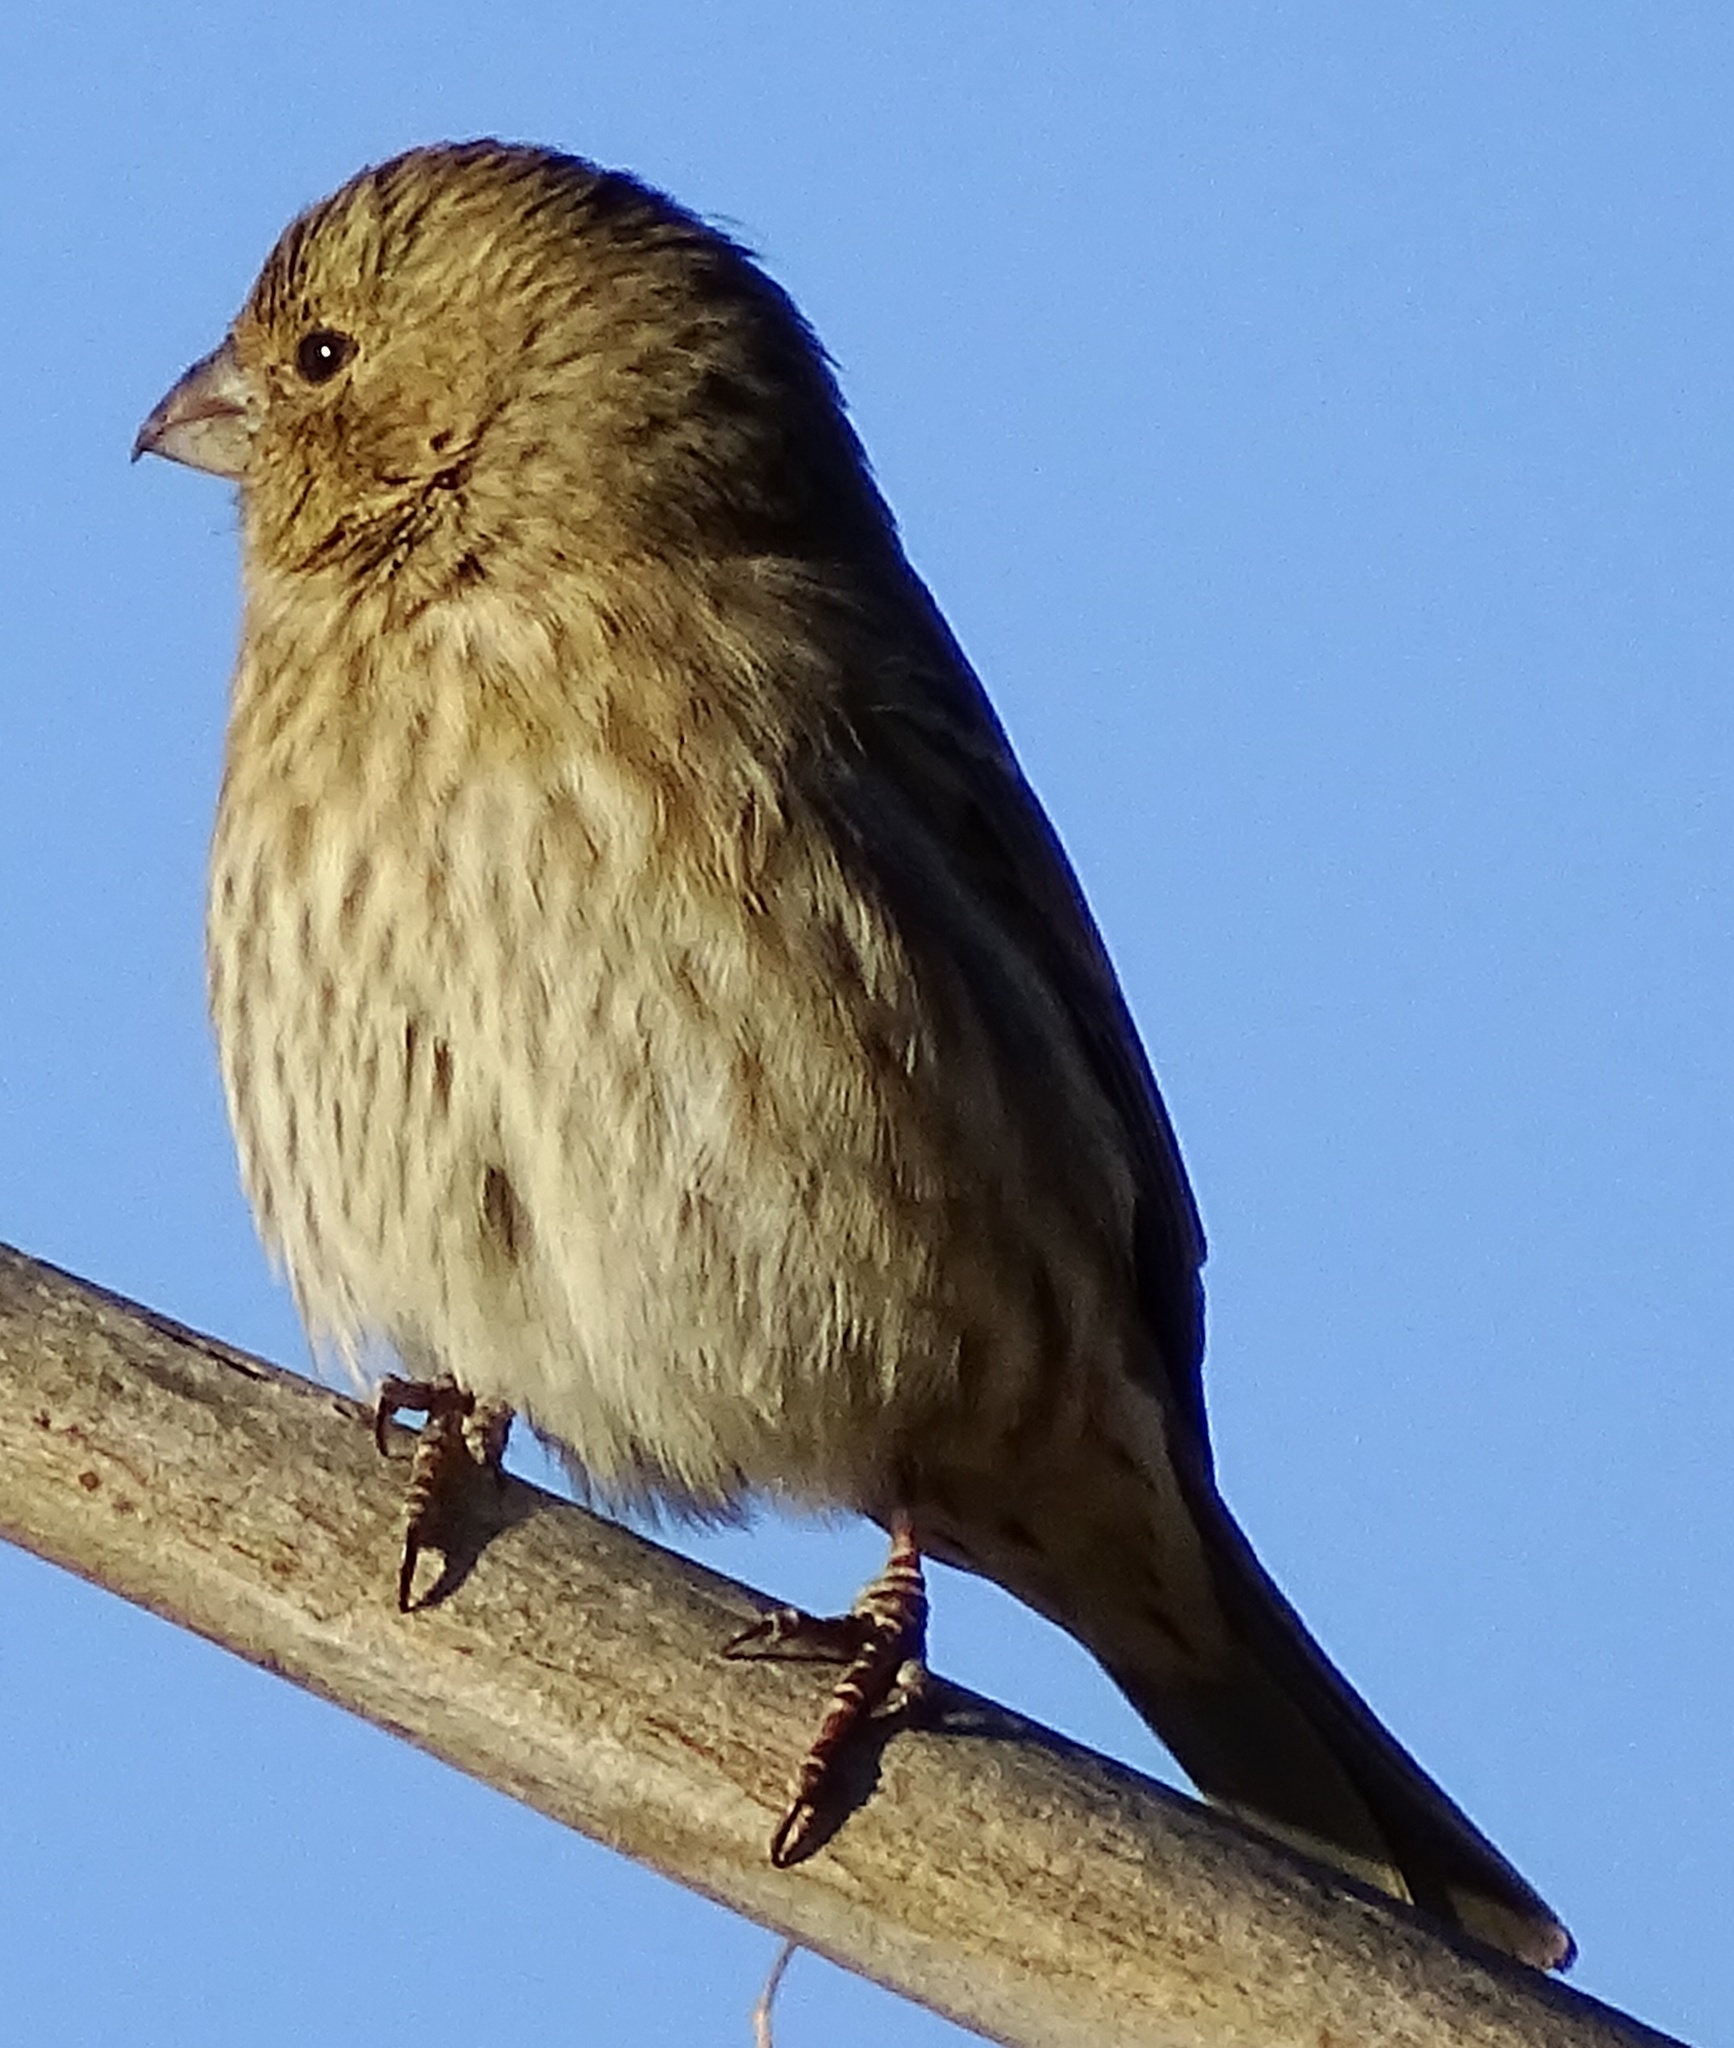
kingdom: Animalia
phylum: Chordata
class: Aves
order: Passeriformes
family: Fringillidae
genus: Haemorhous
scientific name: Haemorhous mexicanus
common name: House finch
